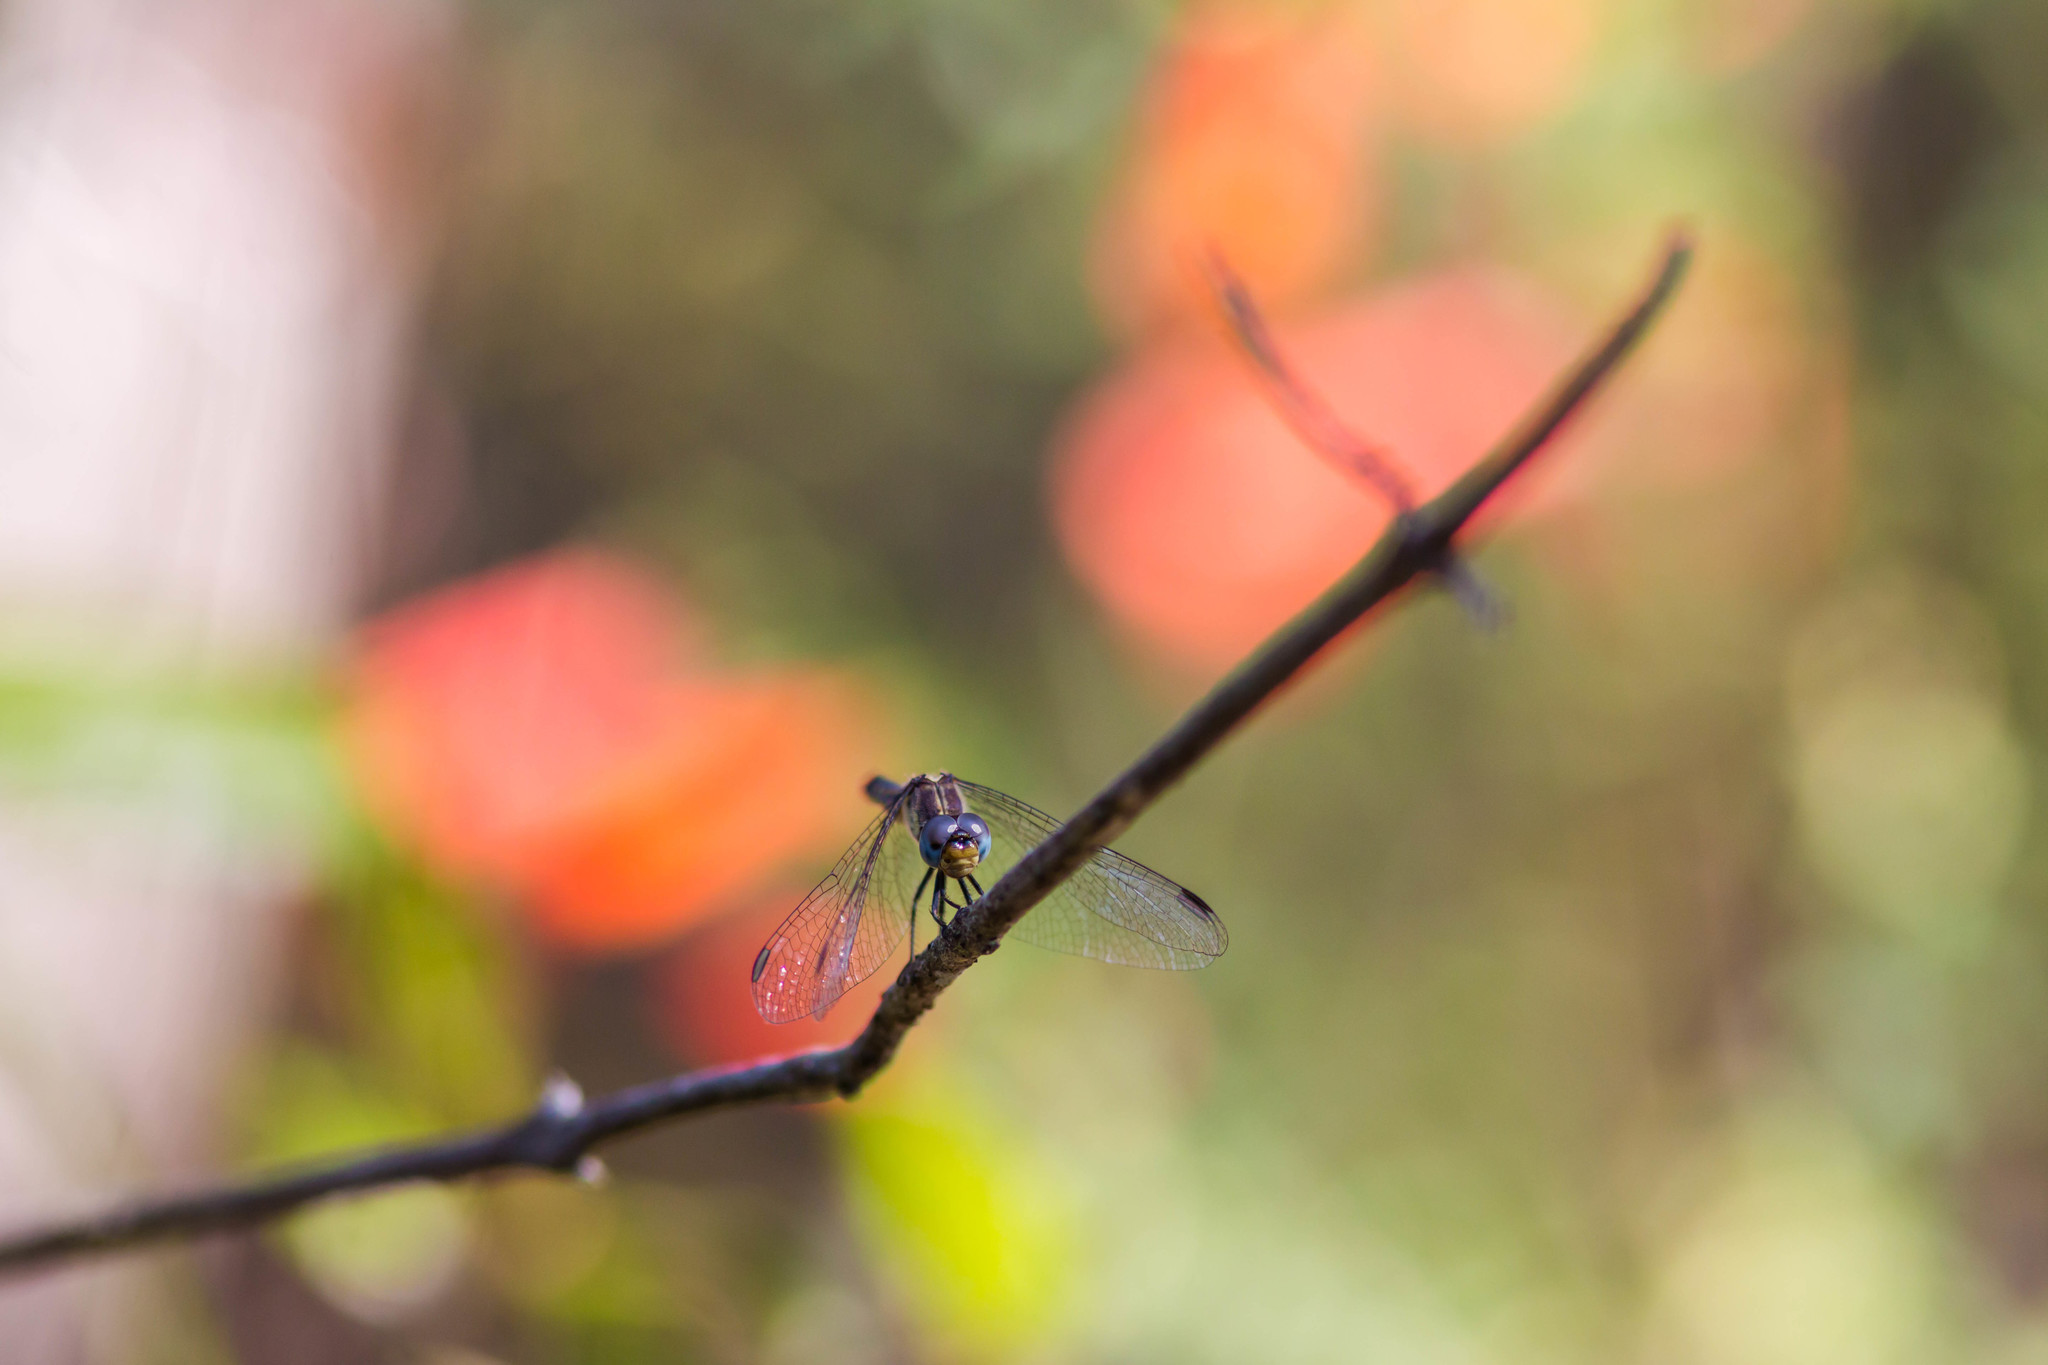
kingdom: Animalia
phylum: Arthropoda
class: Insecta
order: Odonata
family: Libellulidae
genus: Pachydiplax
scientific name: Pachydiplax longipennis
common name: Blue dasher
